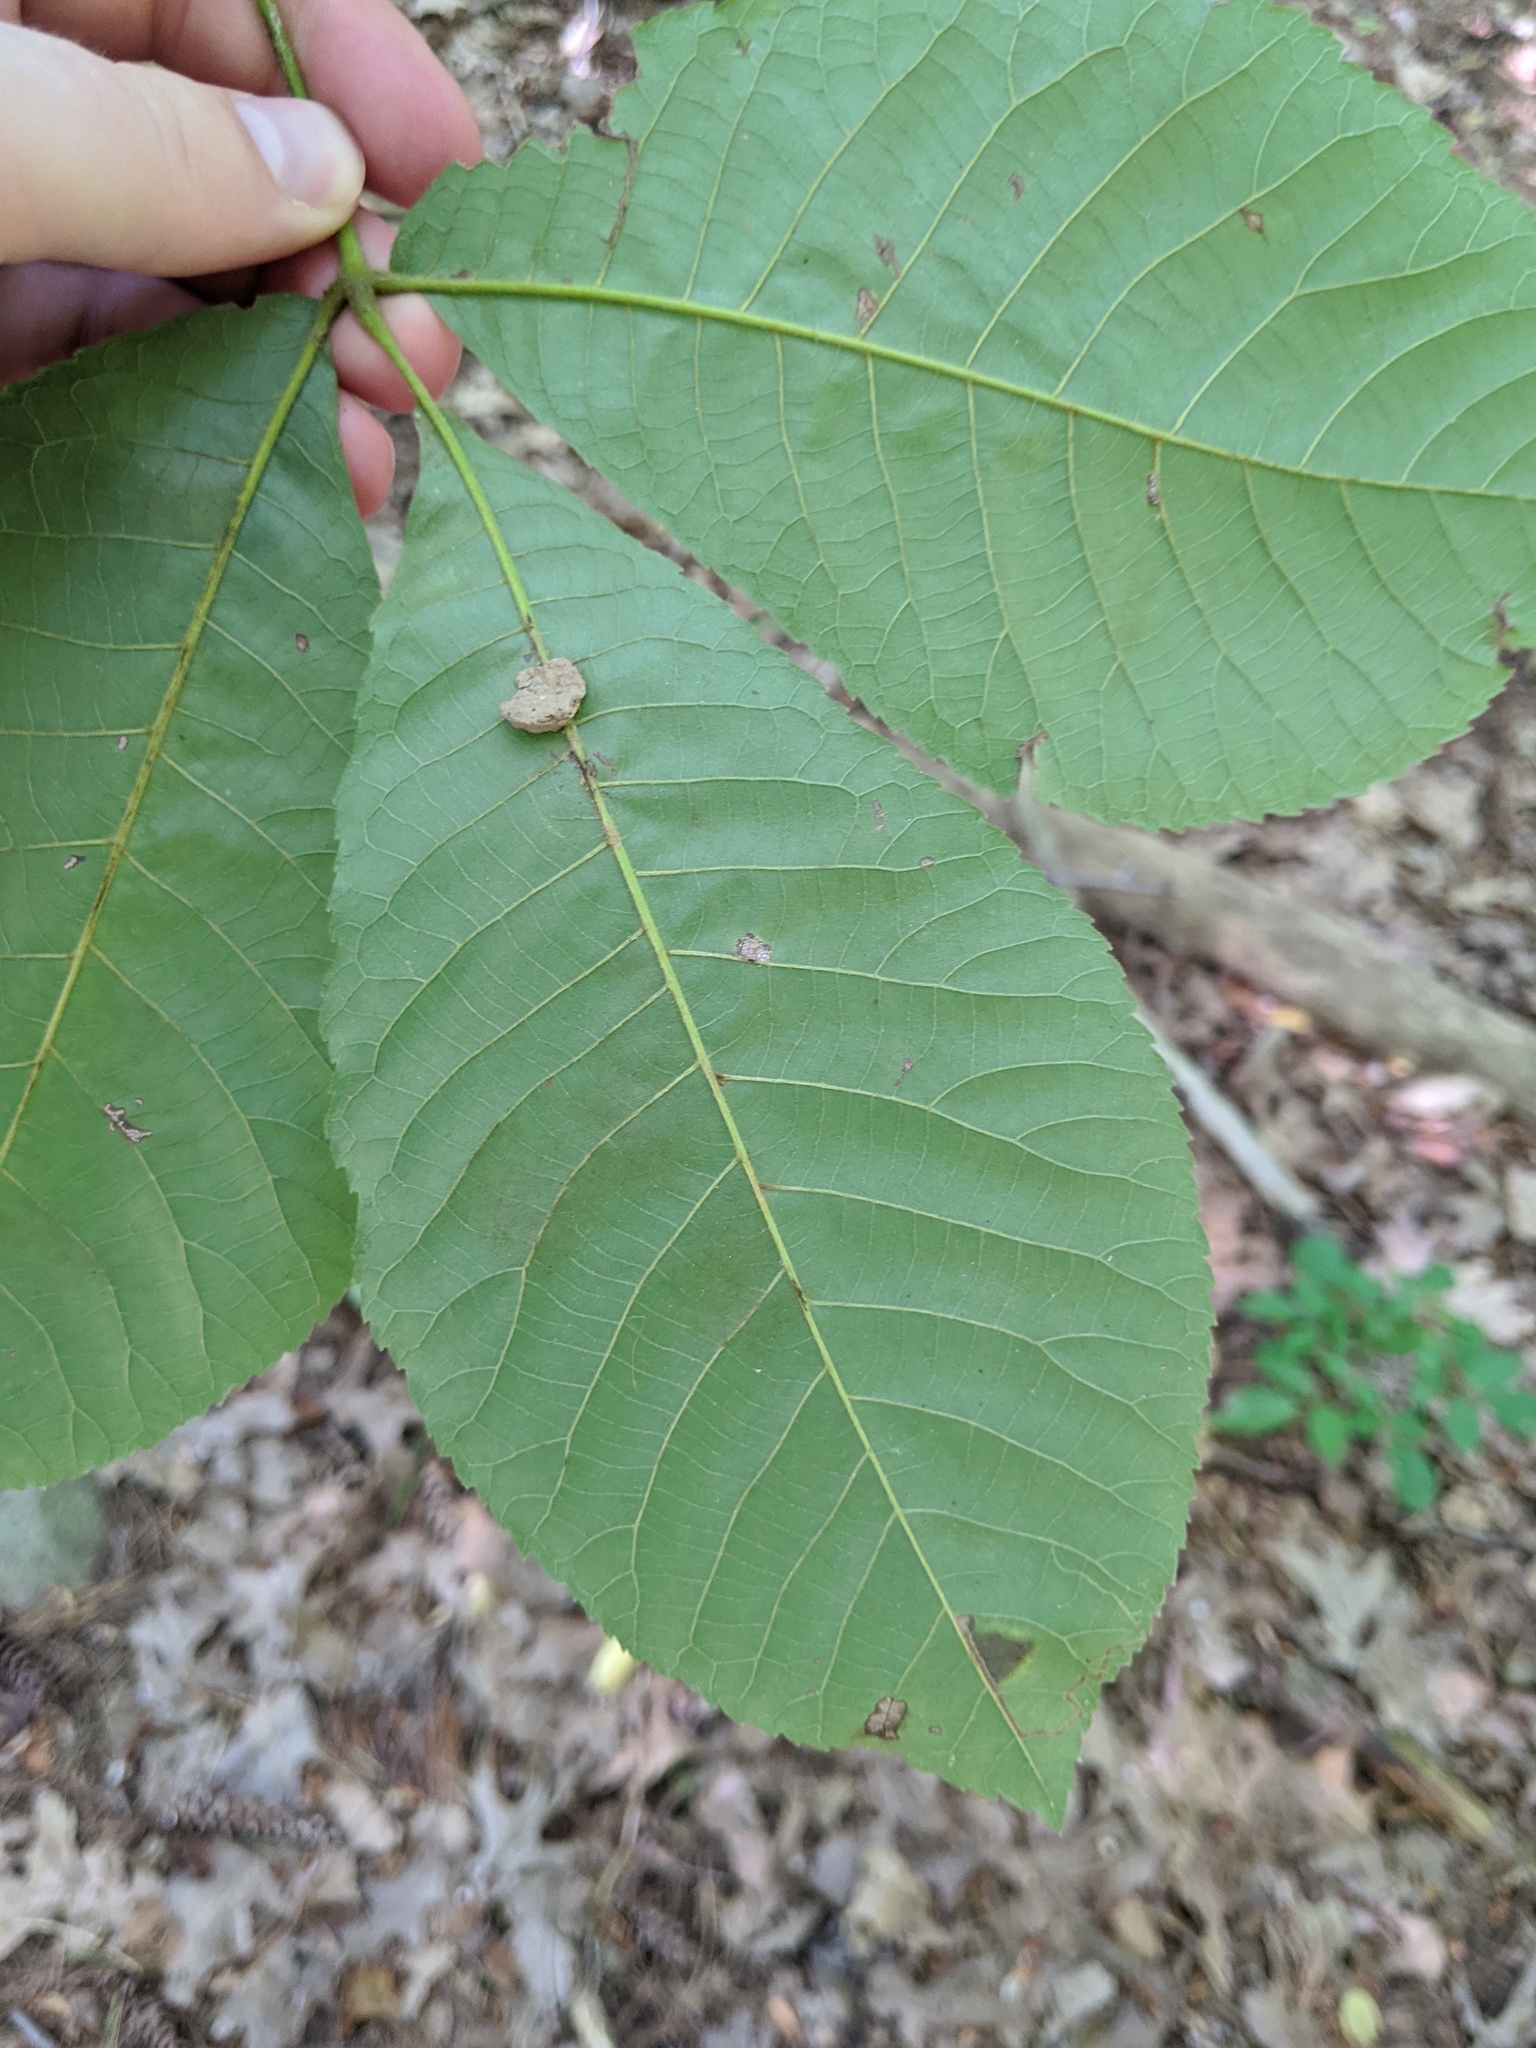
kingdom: Animalia
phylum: Arthropoda
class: Insecta
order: Hymenoptera
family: Vespidae
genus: Eumenes
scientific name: Eumenes
